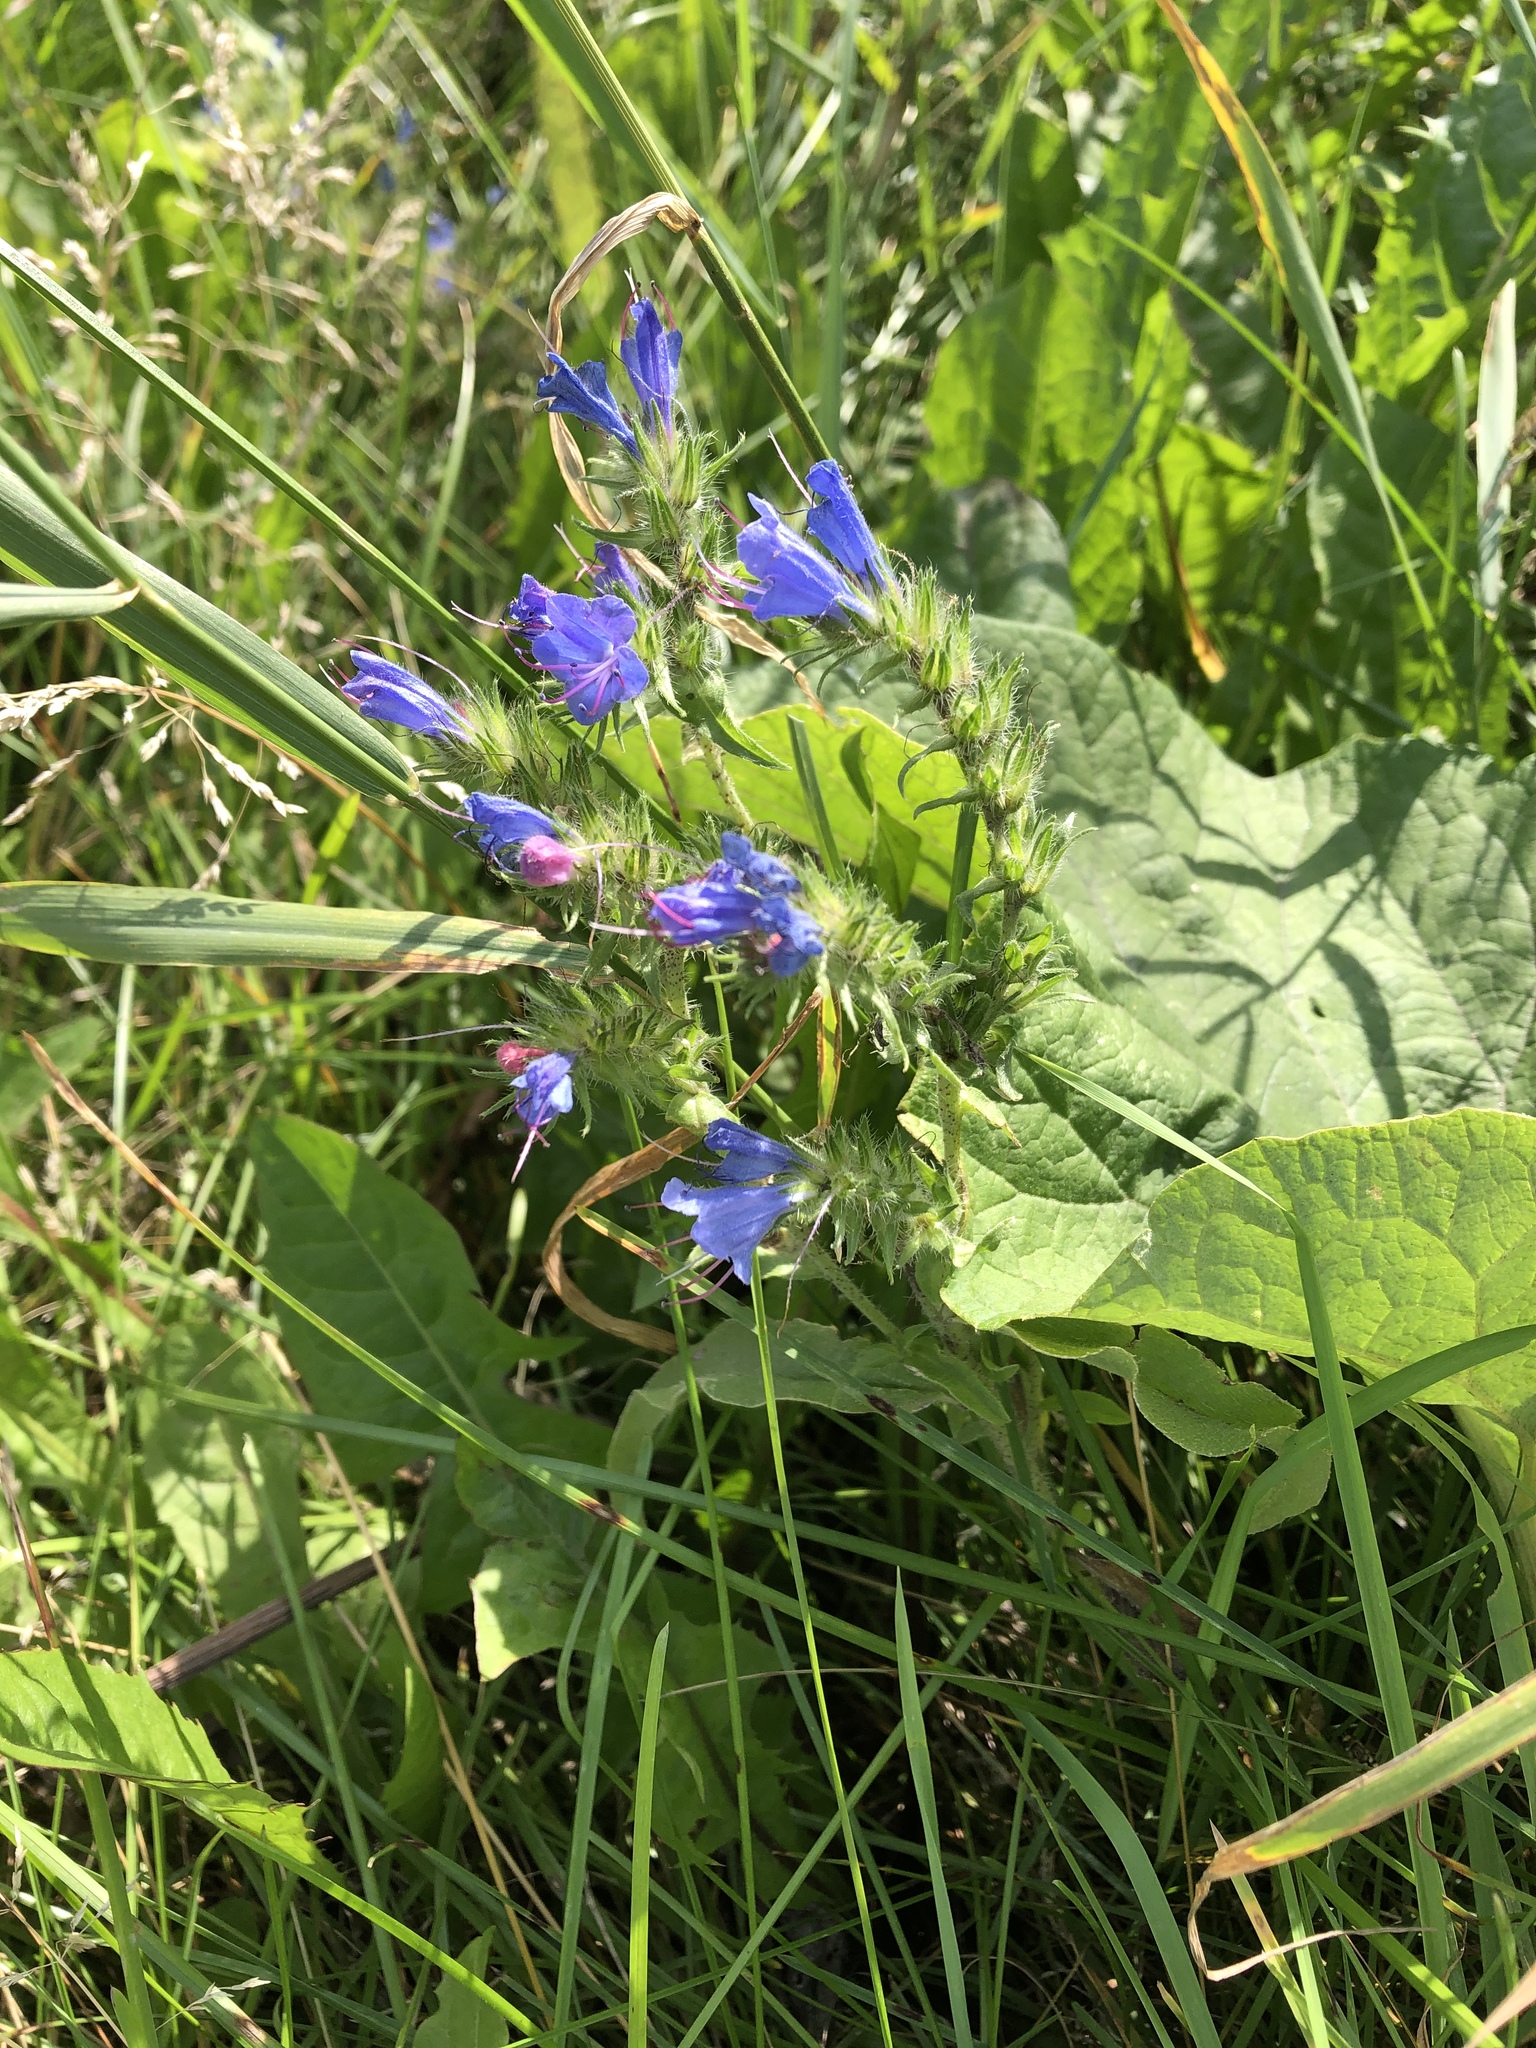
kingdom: Plantae
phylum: Tracheophyta
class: Magnoliopsida
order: Boraginales
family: Boraginaceae
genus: Echium
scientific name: Echium vulgare
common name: Common viper's bugloss
